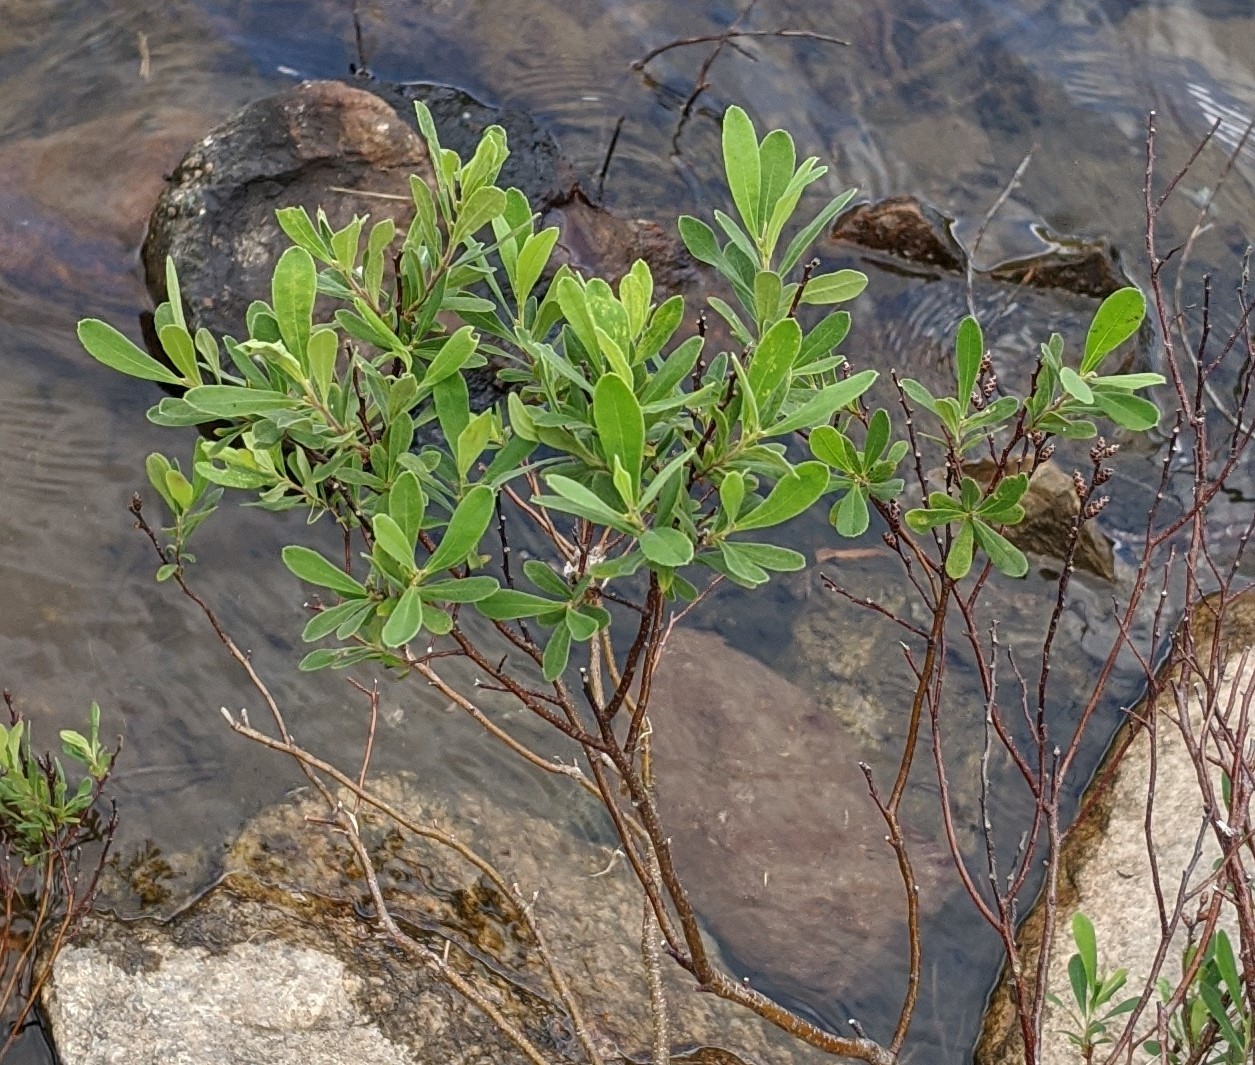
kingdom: Plantae
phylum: Tracheophyta
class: Magnoliopsida
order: Fagales
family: Myricaceae
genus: Myrica
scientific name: Myrica gale
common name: Sweet gale
